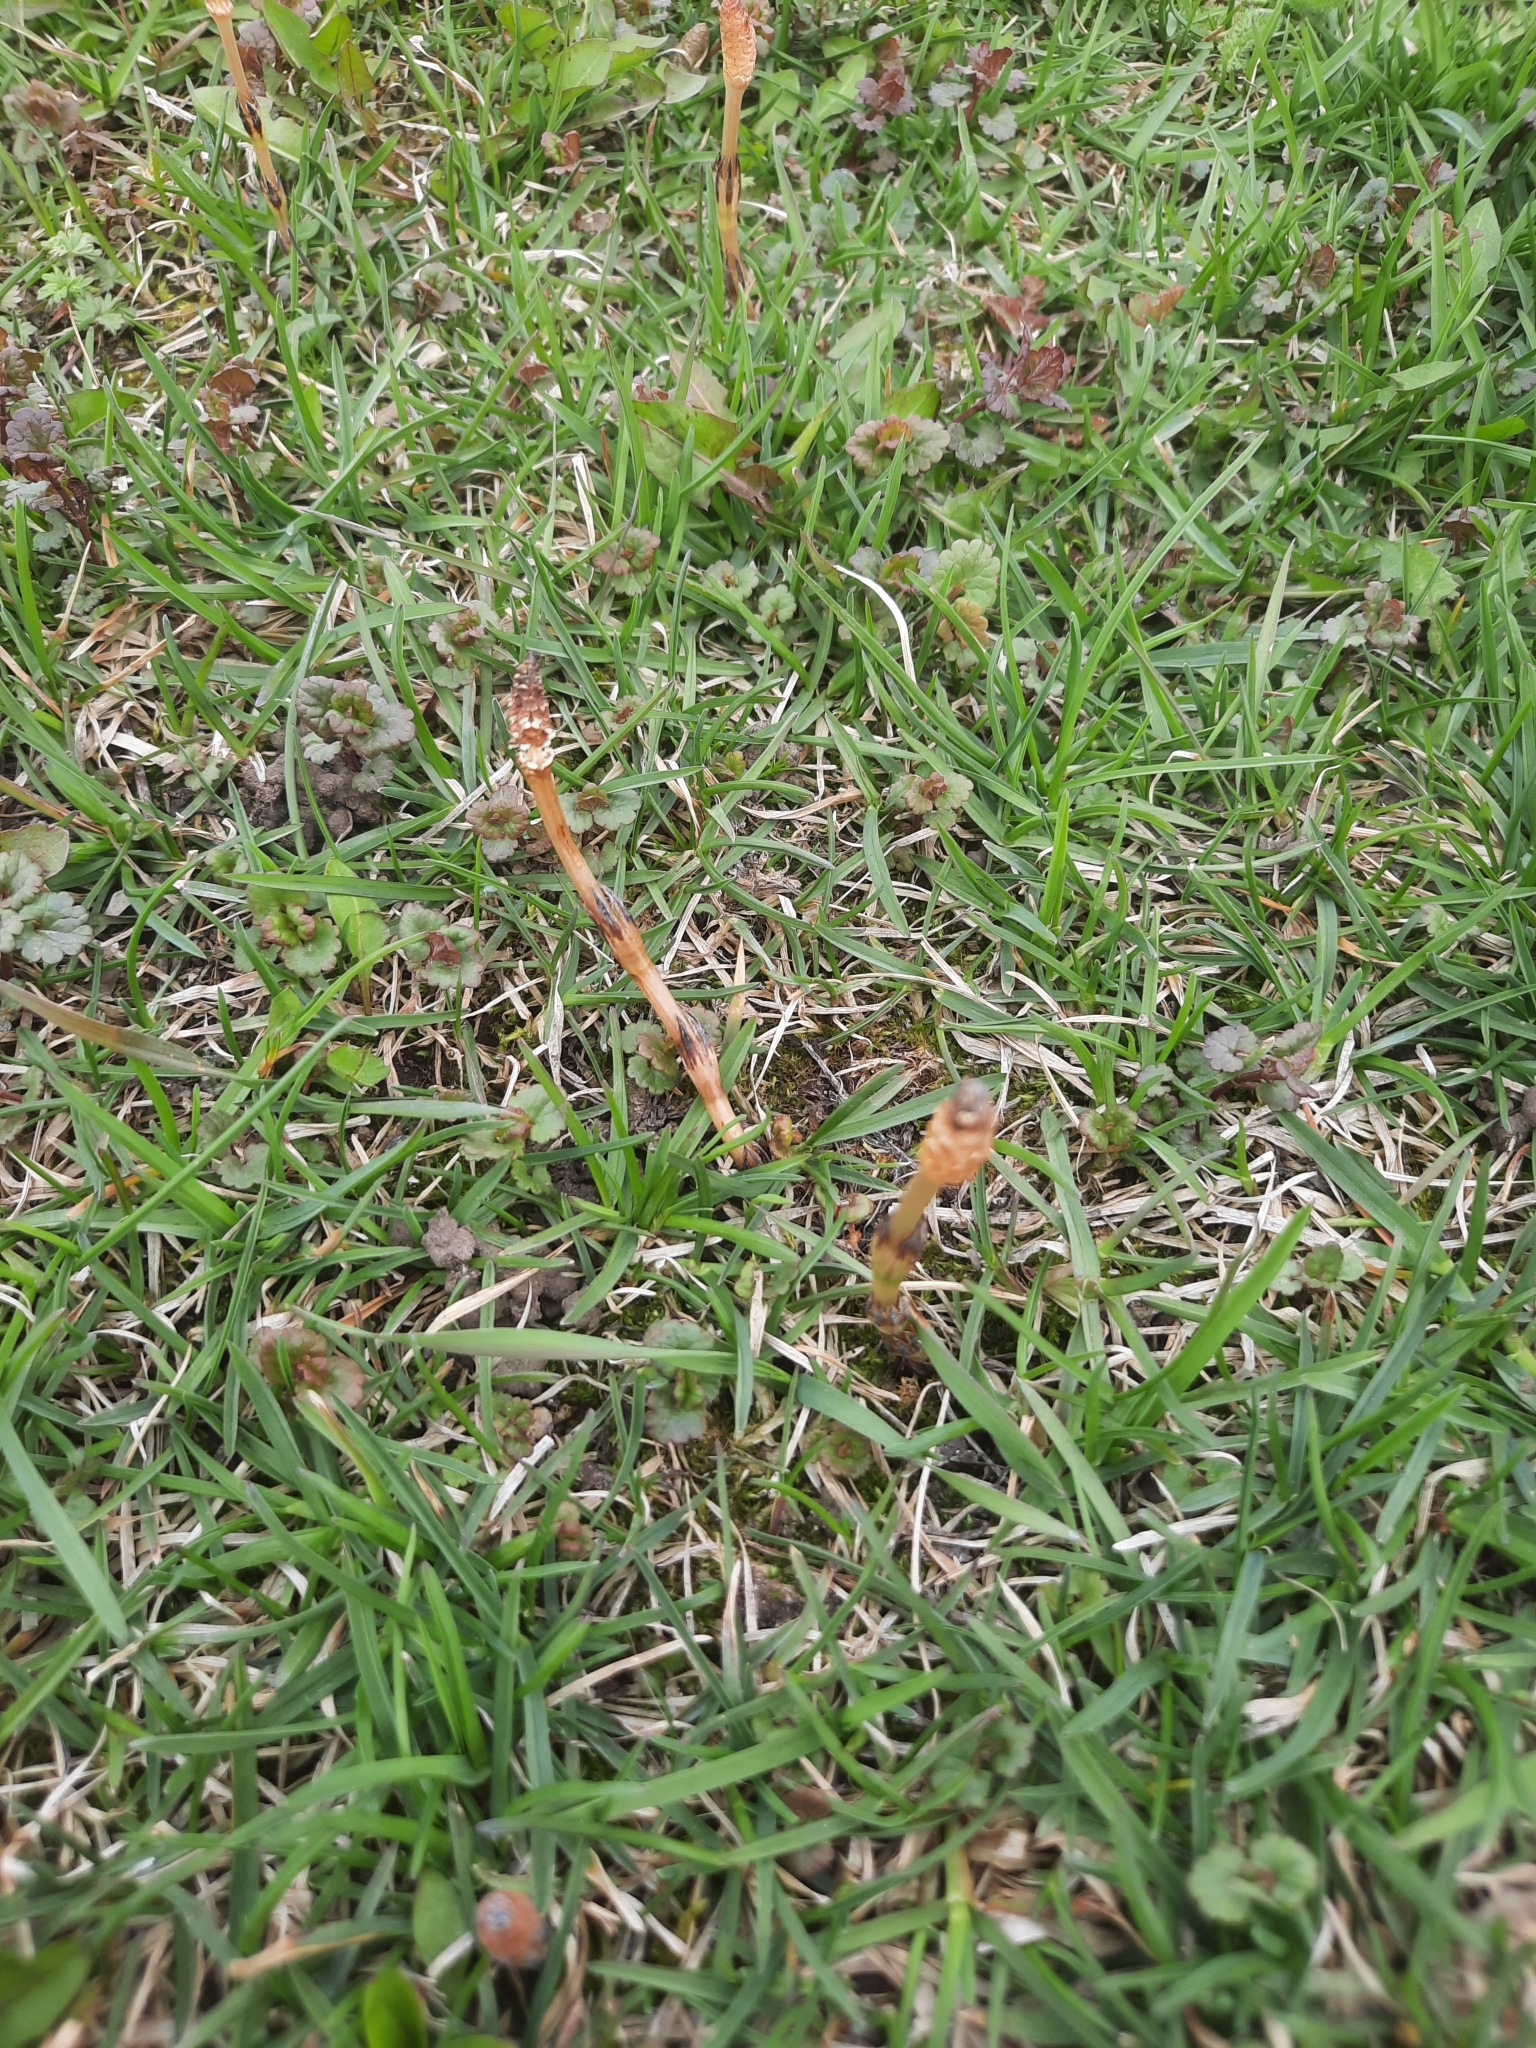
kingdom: Plantae
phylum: Tracheophyta
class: Polypodiopsida
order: Equisetales
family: Equisetaceae
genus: Equisetum
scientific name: Equisetum arvense
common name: Field horsetail
